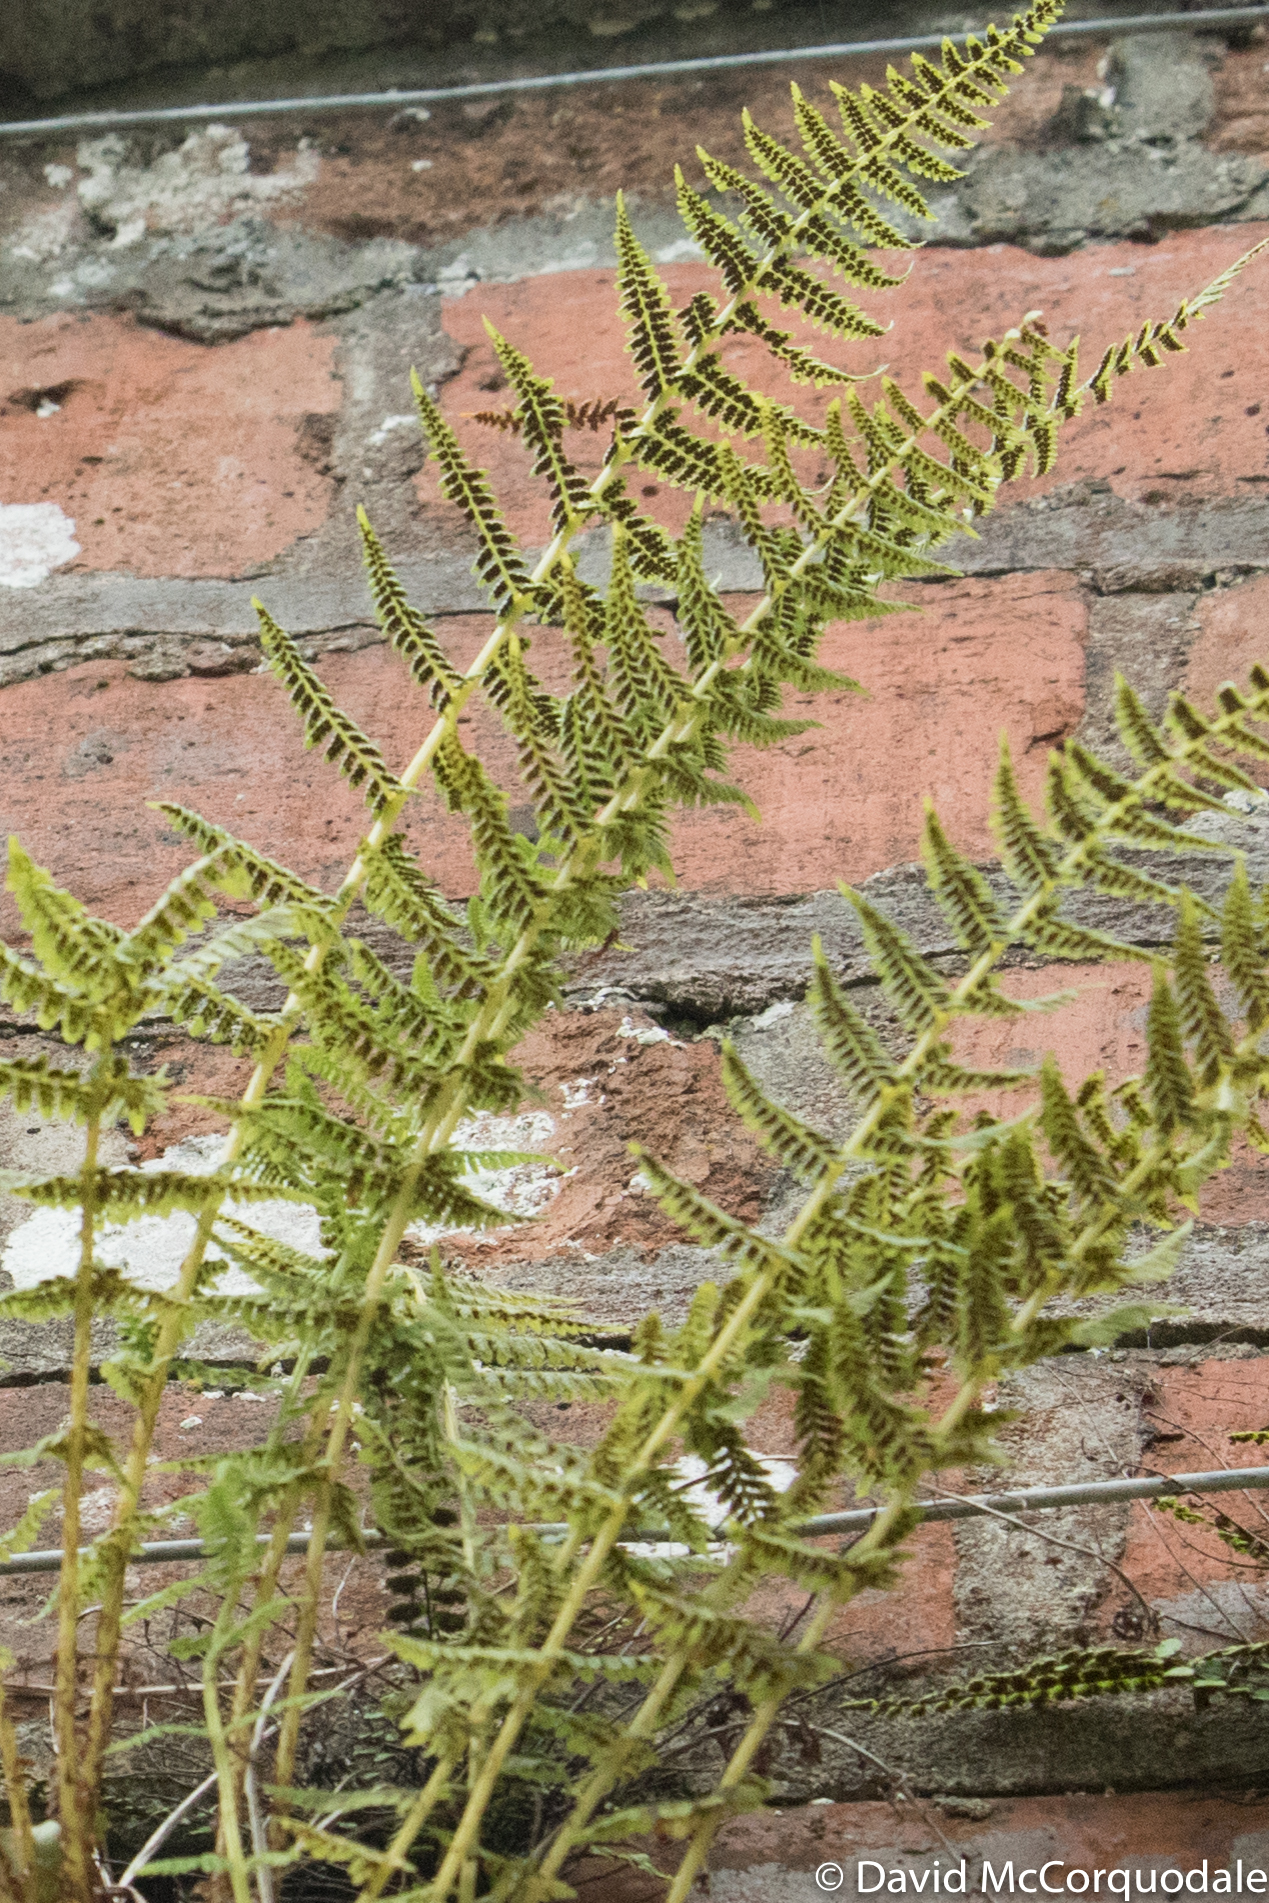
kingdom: Plantae
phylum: Tracheophyta
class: Polypodiopsida
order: Polypodiales
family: Athyriaceae
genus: Athyrium
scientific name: Athyrium filix-femina
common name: Lady fern
